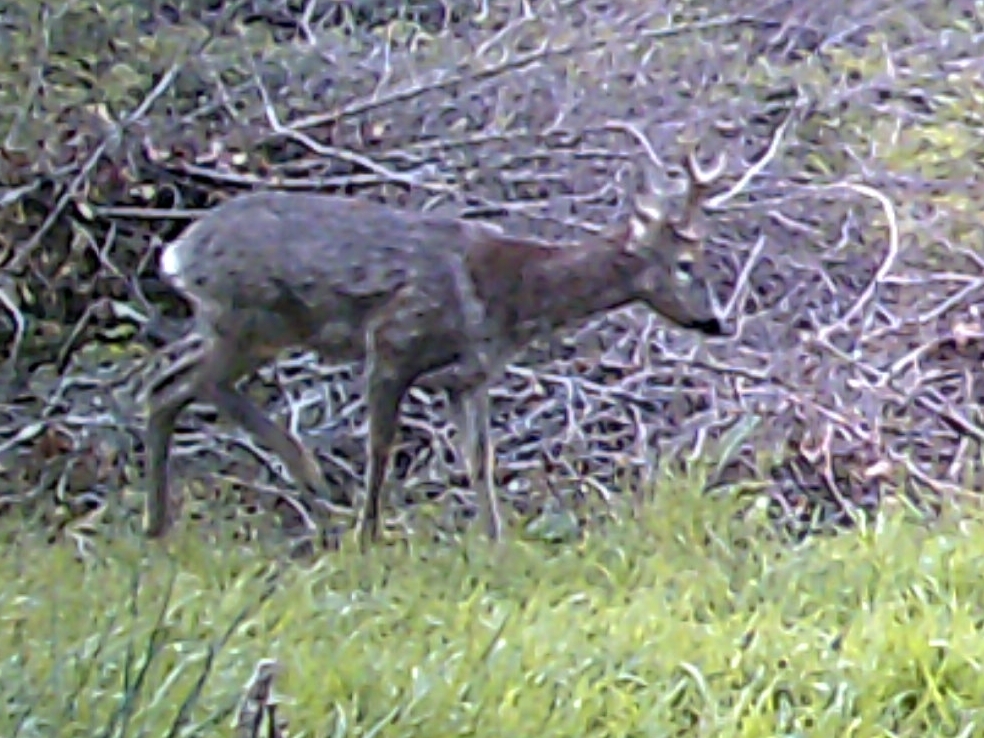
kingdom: Animalia
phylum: Chordata
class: Mammalia
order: Artiodactyla
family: Cervidae
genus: Capreolus
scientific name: Capreolus capreolus
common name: Western roe deer
